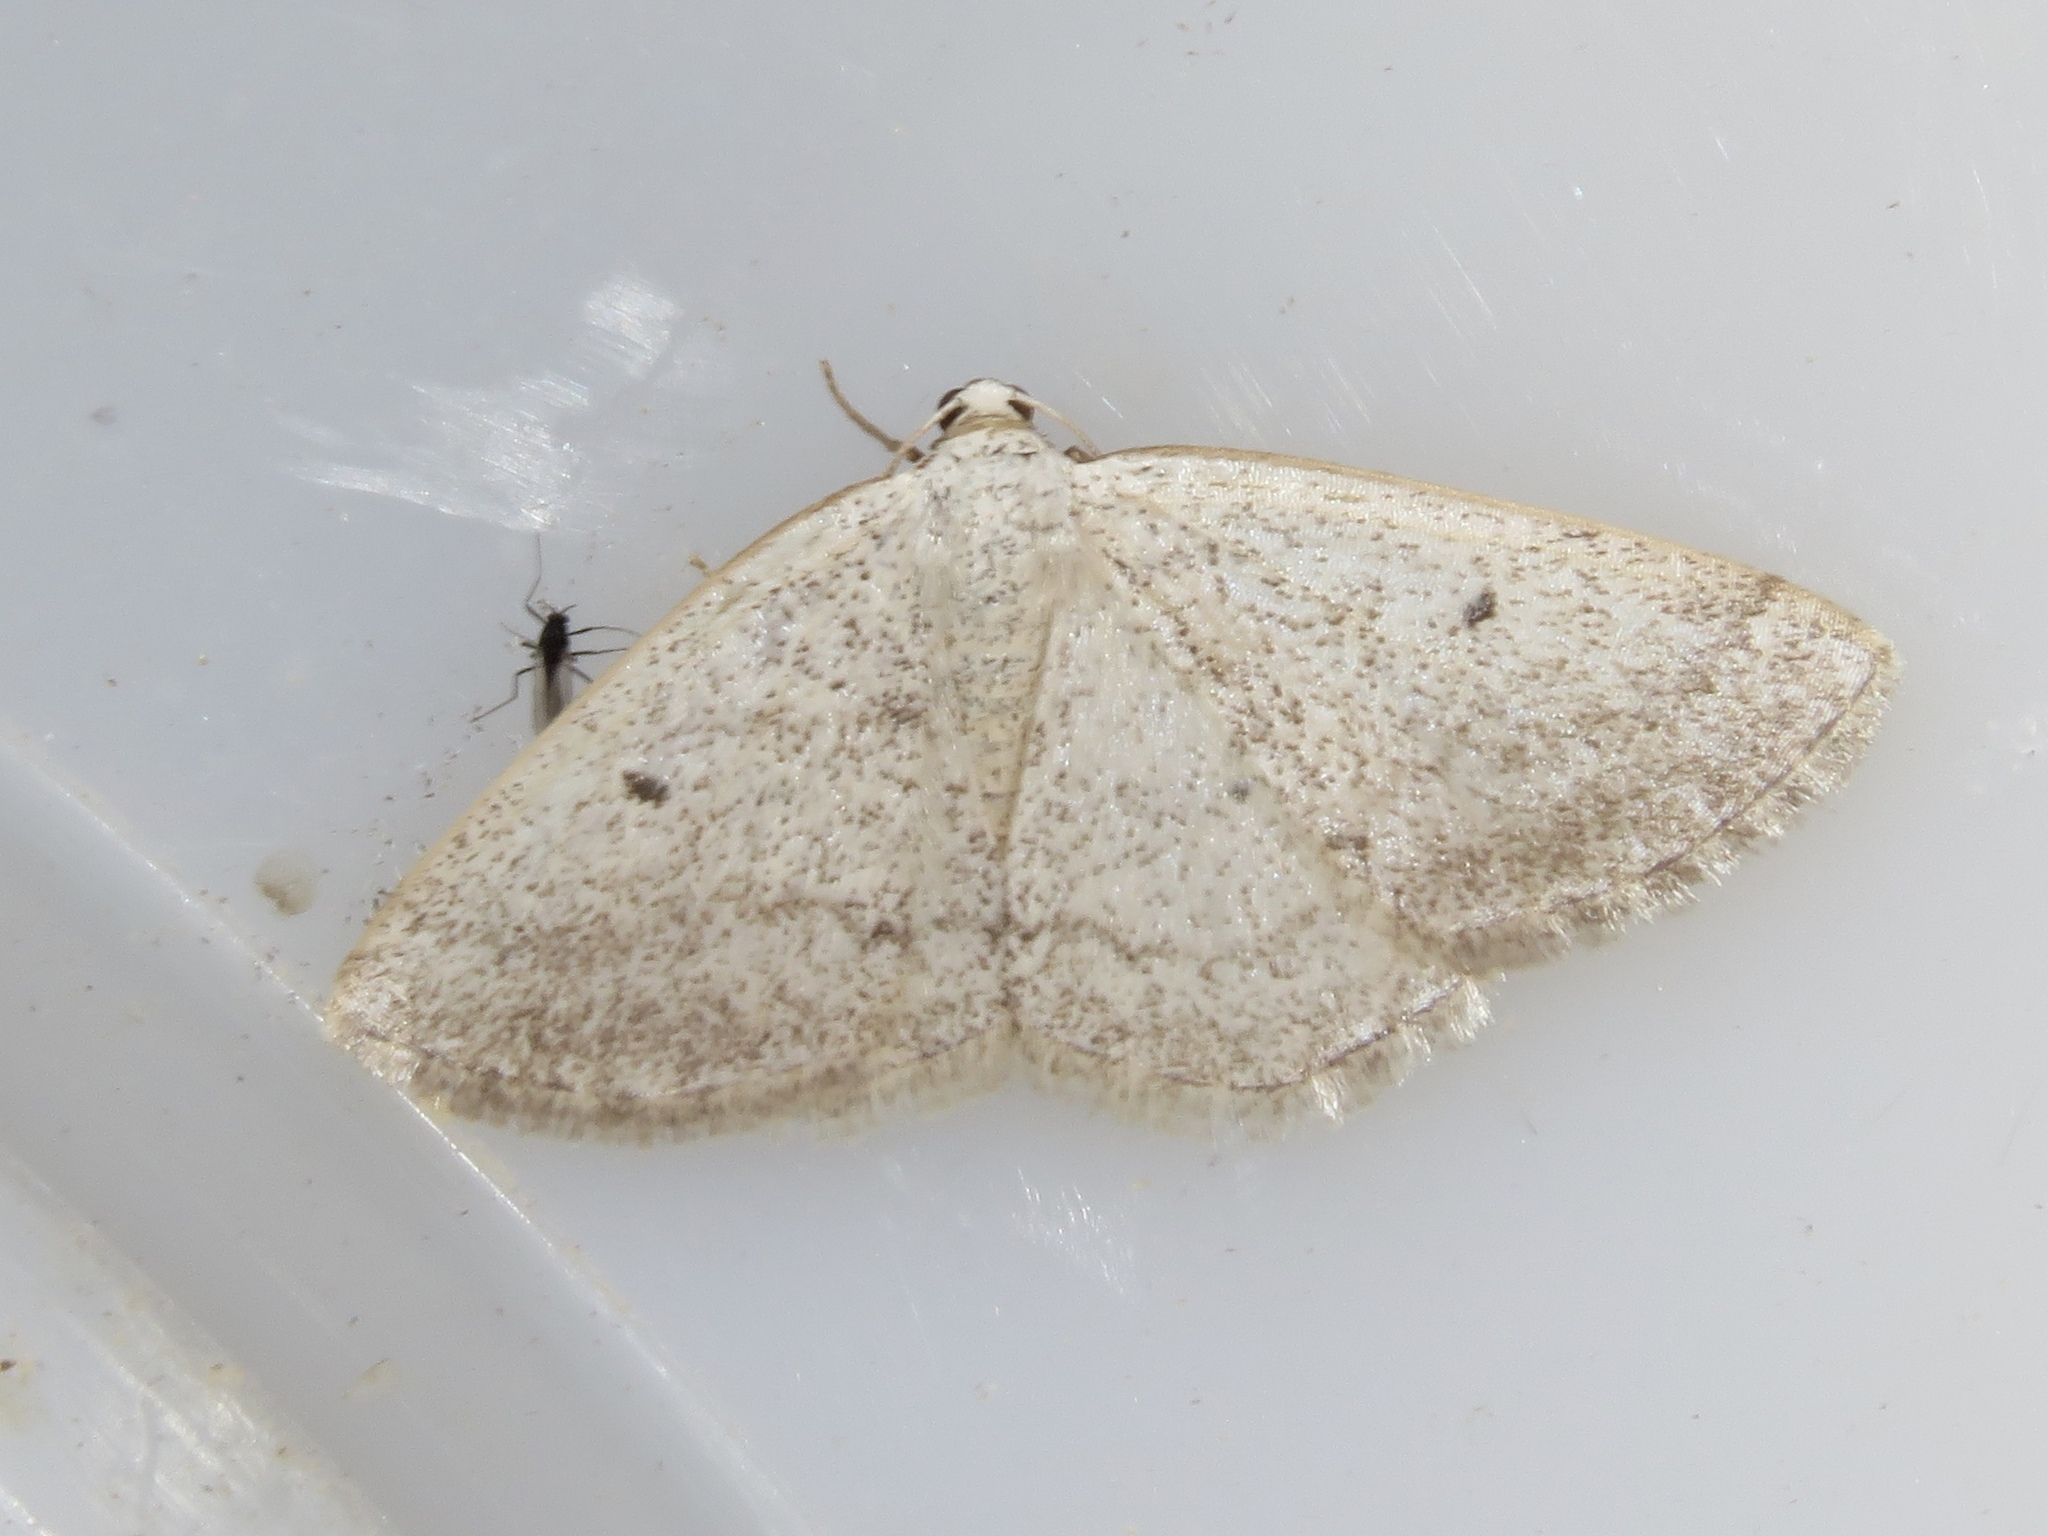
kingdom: Animalia
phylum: Arthropoda
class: Insecta
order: Lepidoptera
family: Geometridae
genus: Lomographa
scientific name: Lomographa glomeraria
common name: Gray spring moth
